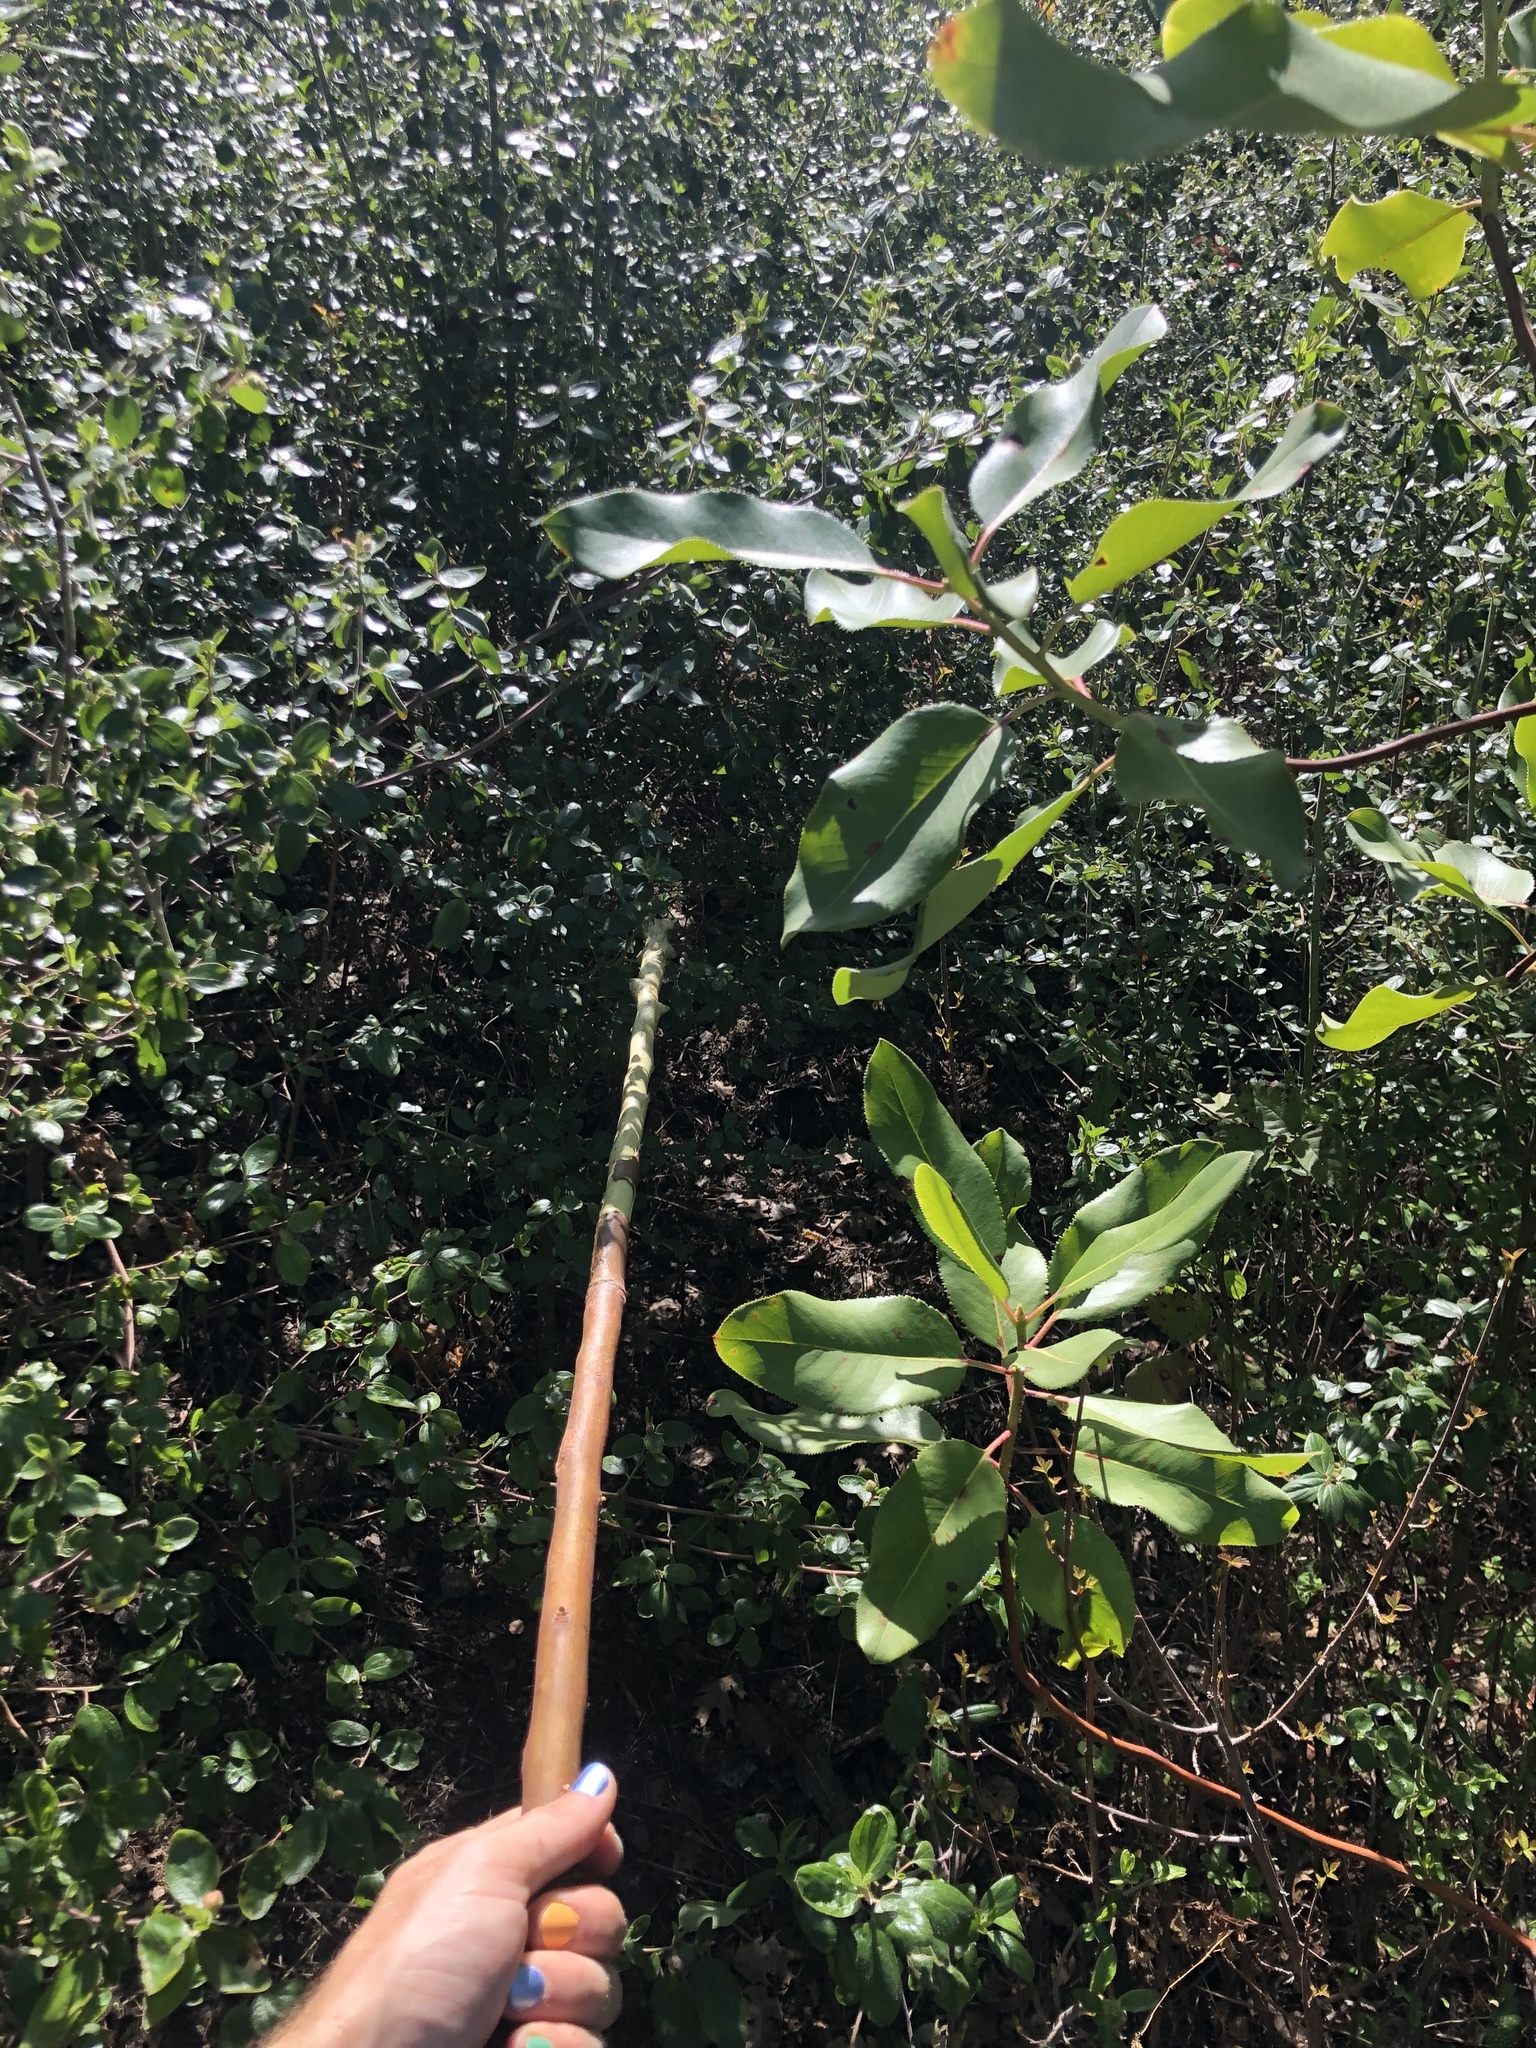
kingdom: Plantae
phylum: Tracheophyta
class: Magnoliopsida
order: Ericales
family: Ericaceae
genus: Arbutus
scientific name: Arbutus menziesii
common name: Pacific madrone
